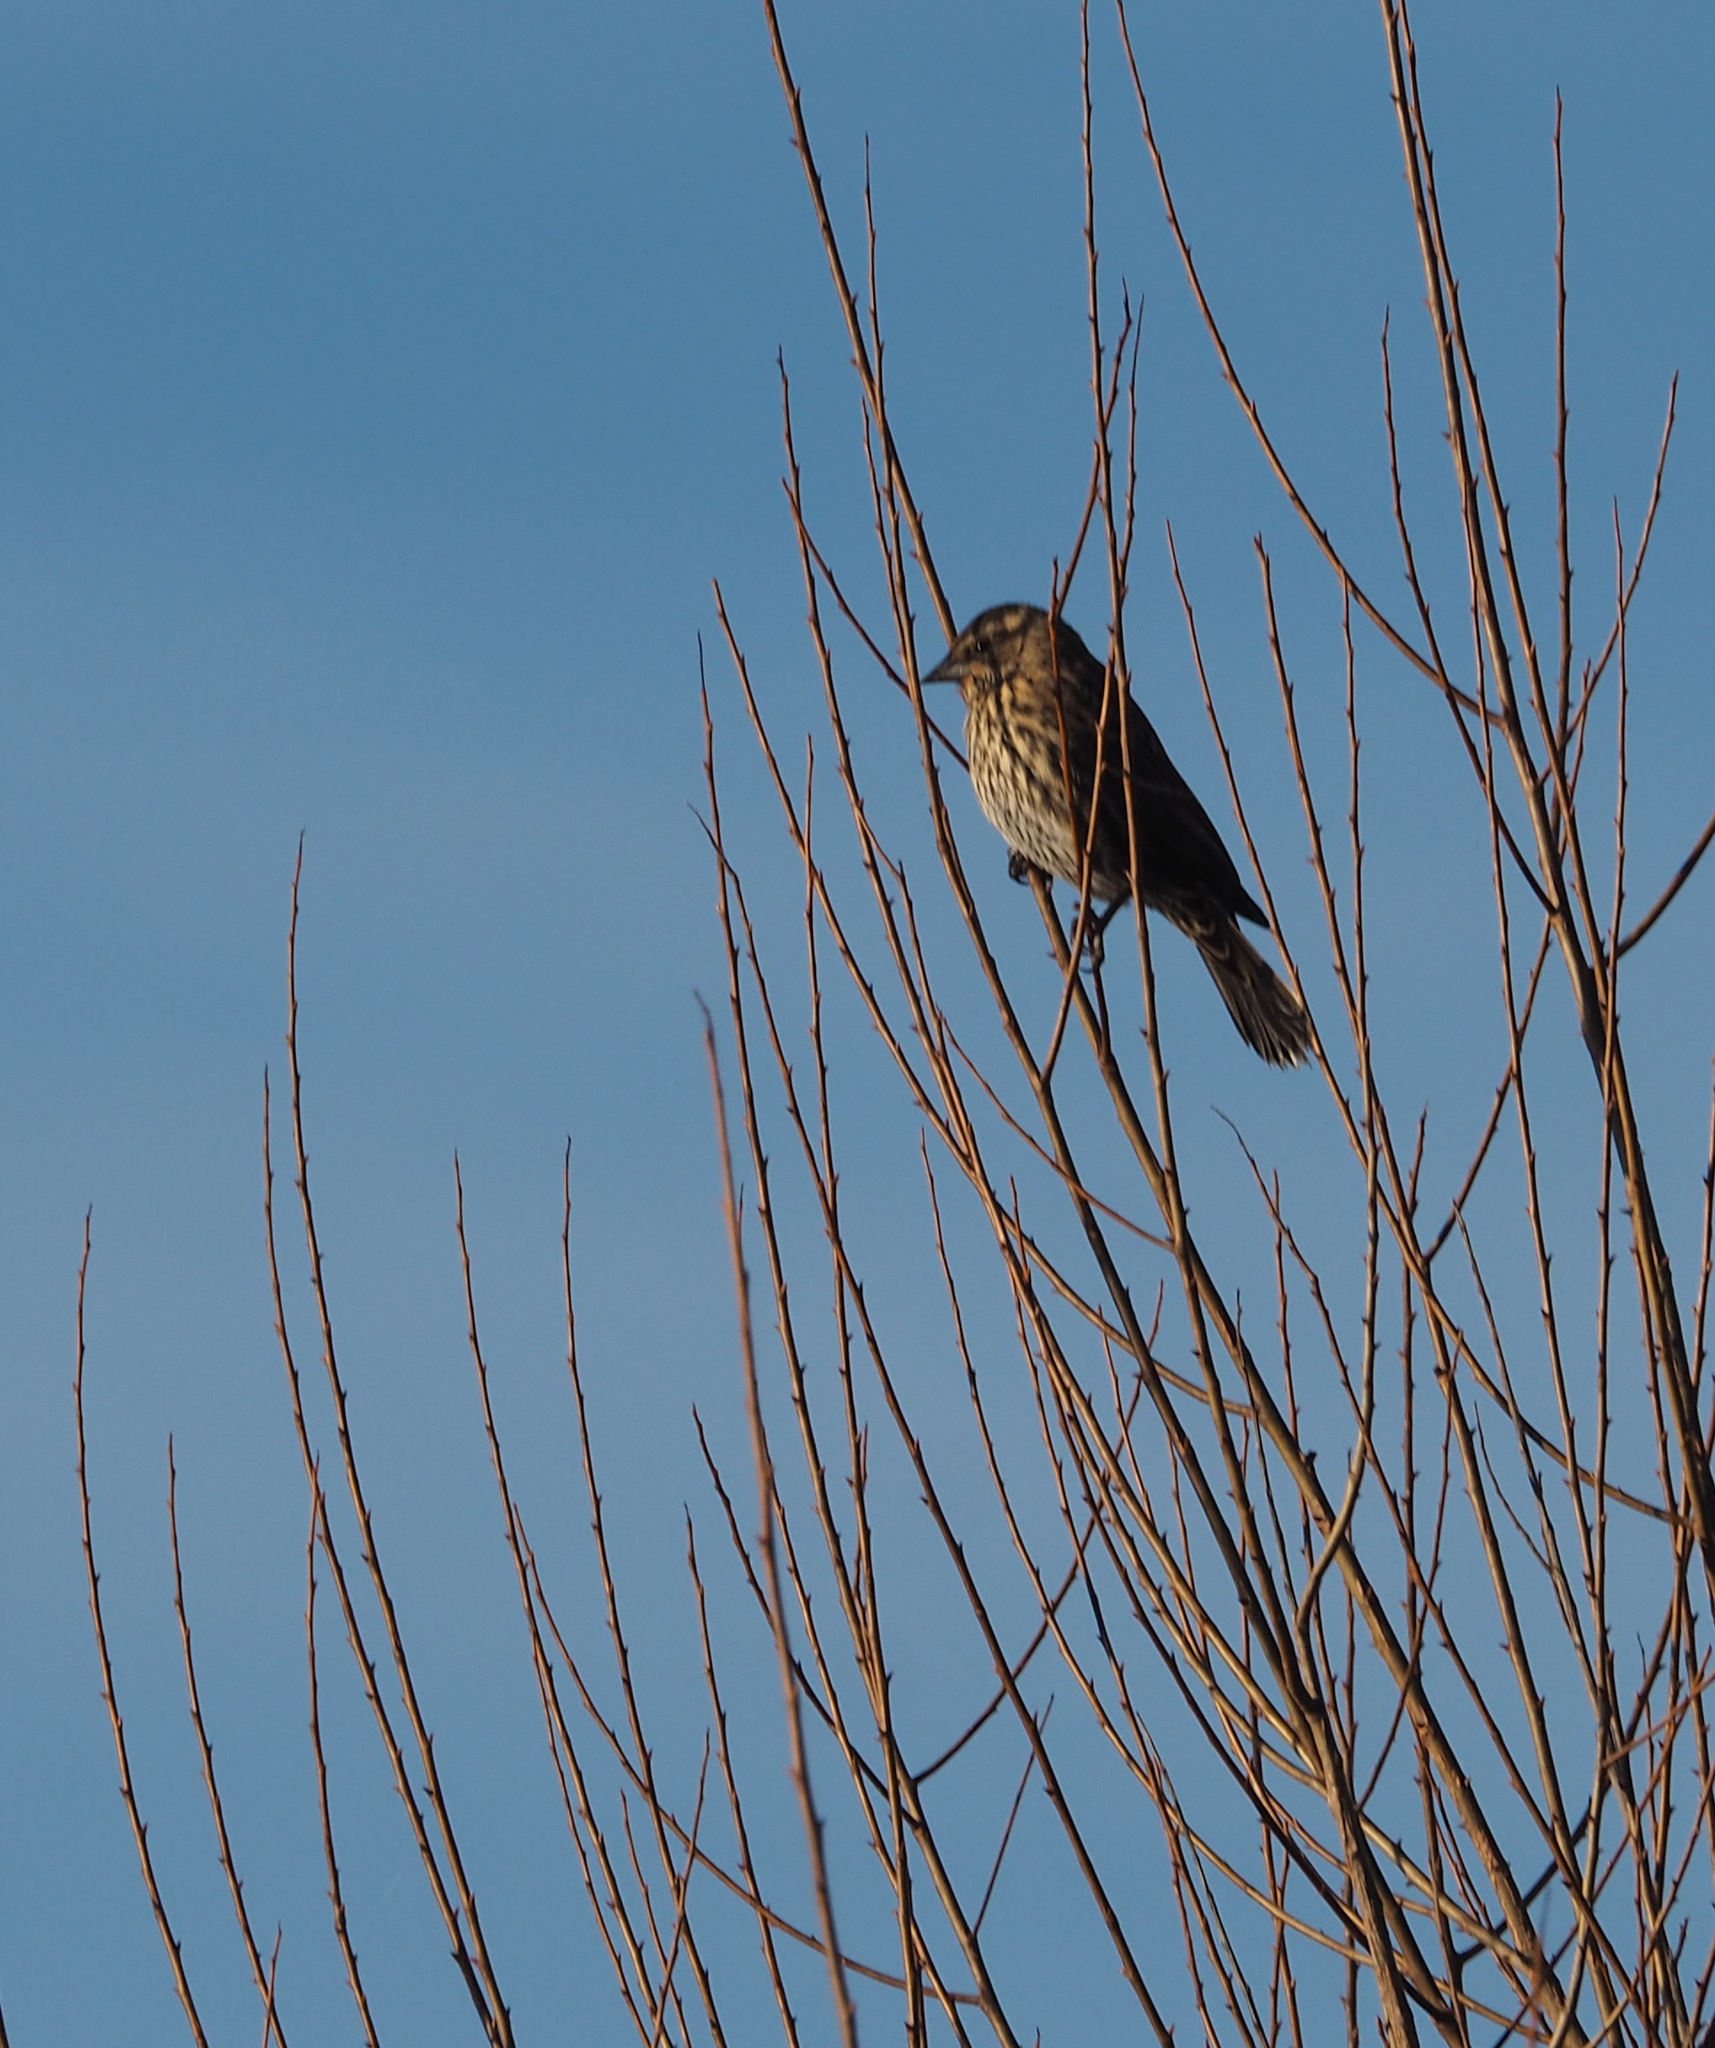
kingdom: Animalia
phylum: Chordata
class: Aves
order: Passeriformes
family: Icteridae
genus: Agelaius
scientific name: Agelaius phoeniceus
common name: Red-winged blackbird
